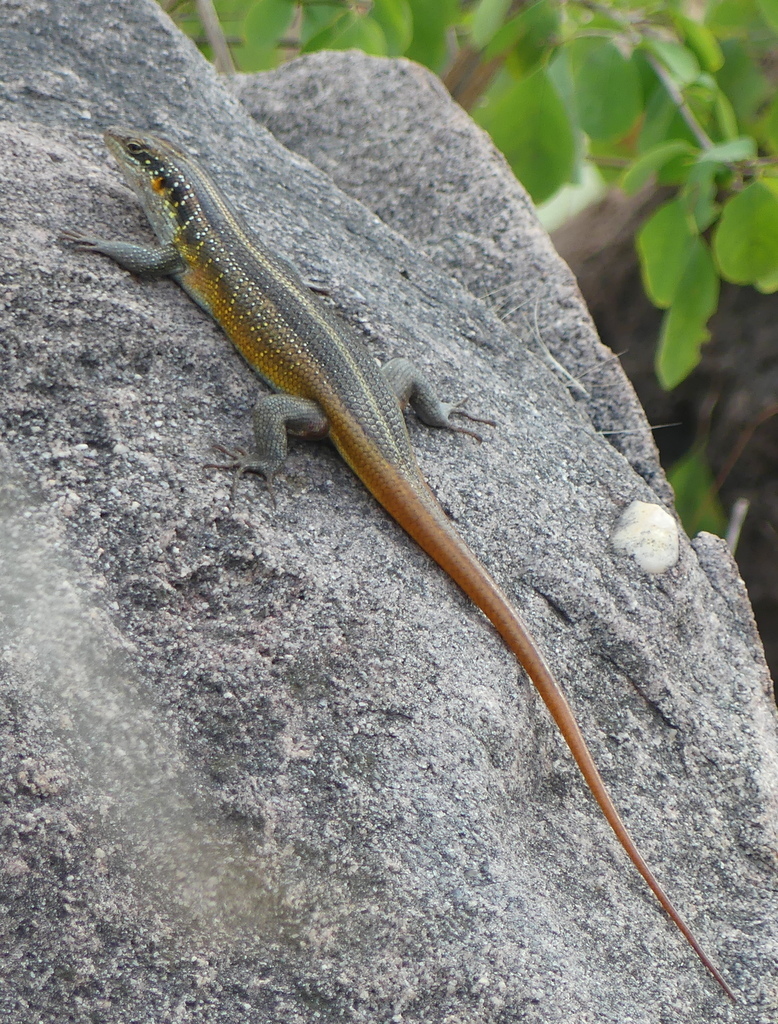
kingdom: Animalia
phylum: Chordata
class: Squamata
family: Scincidae
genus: Trachylepis
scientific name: Trachylepis margaritifera
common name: Rainbow skink
